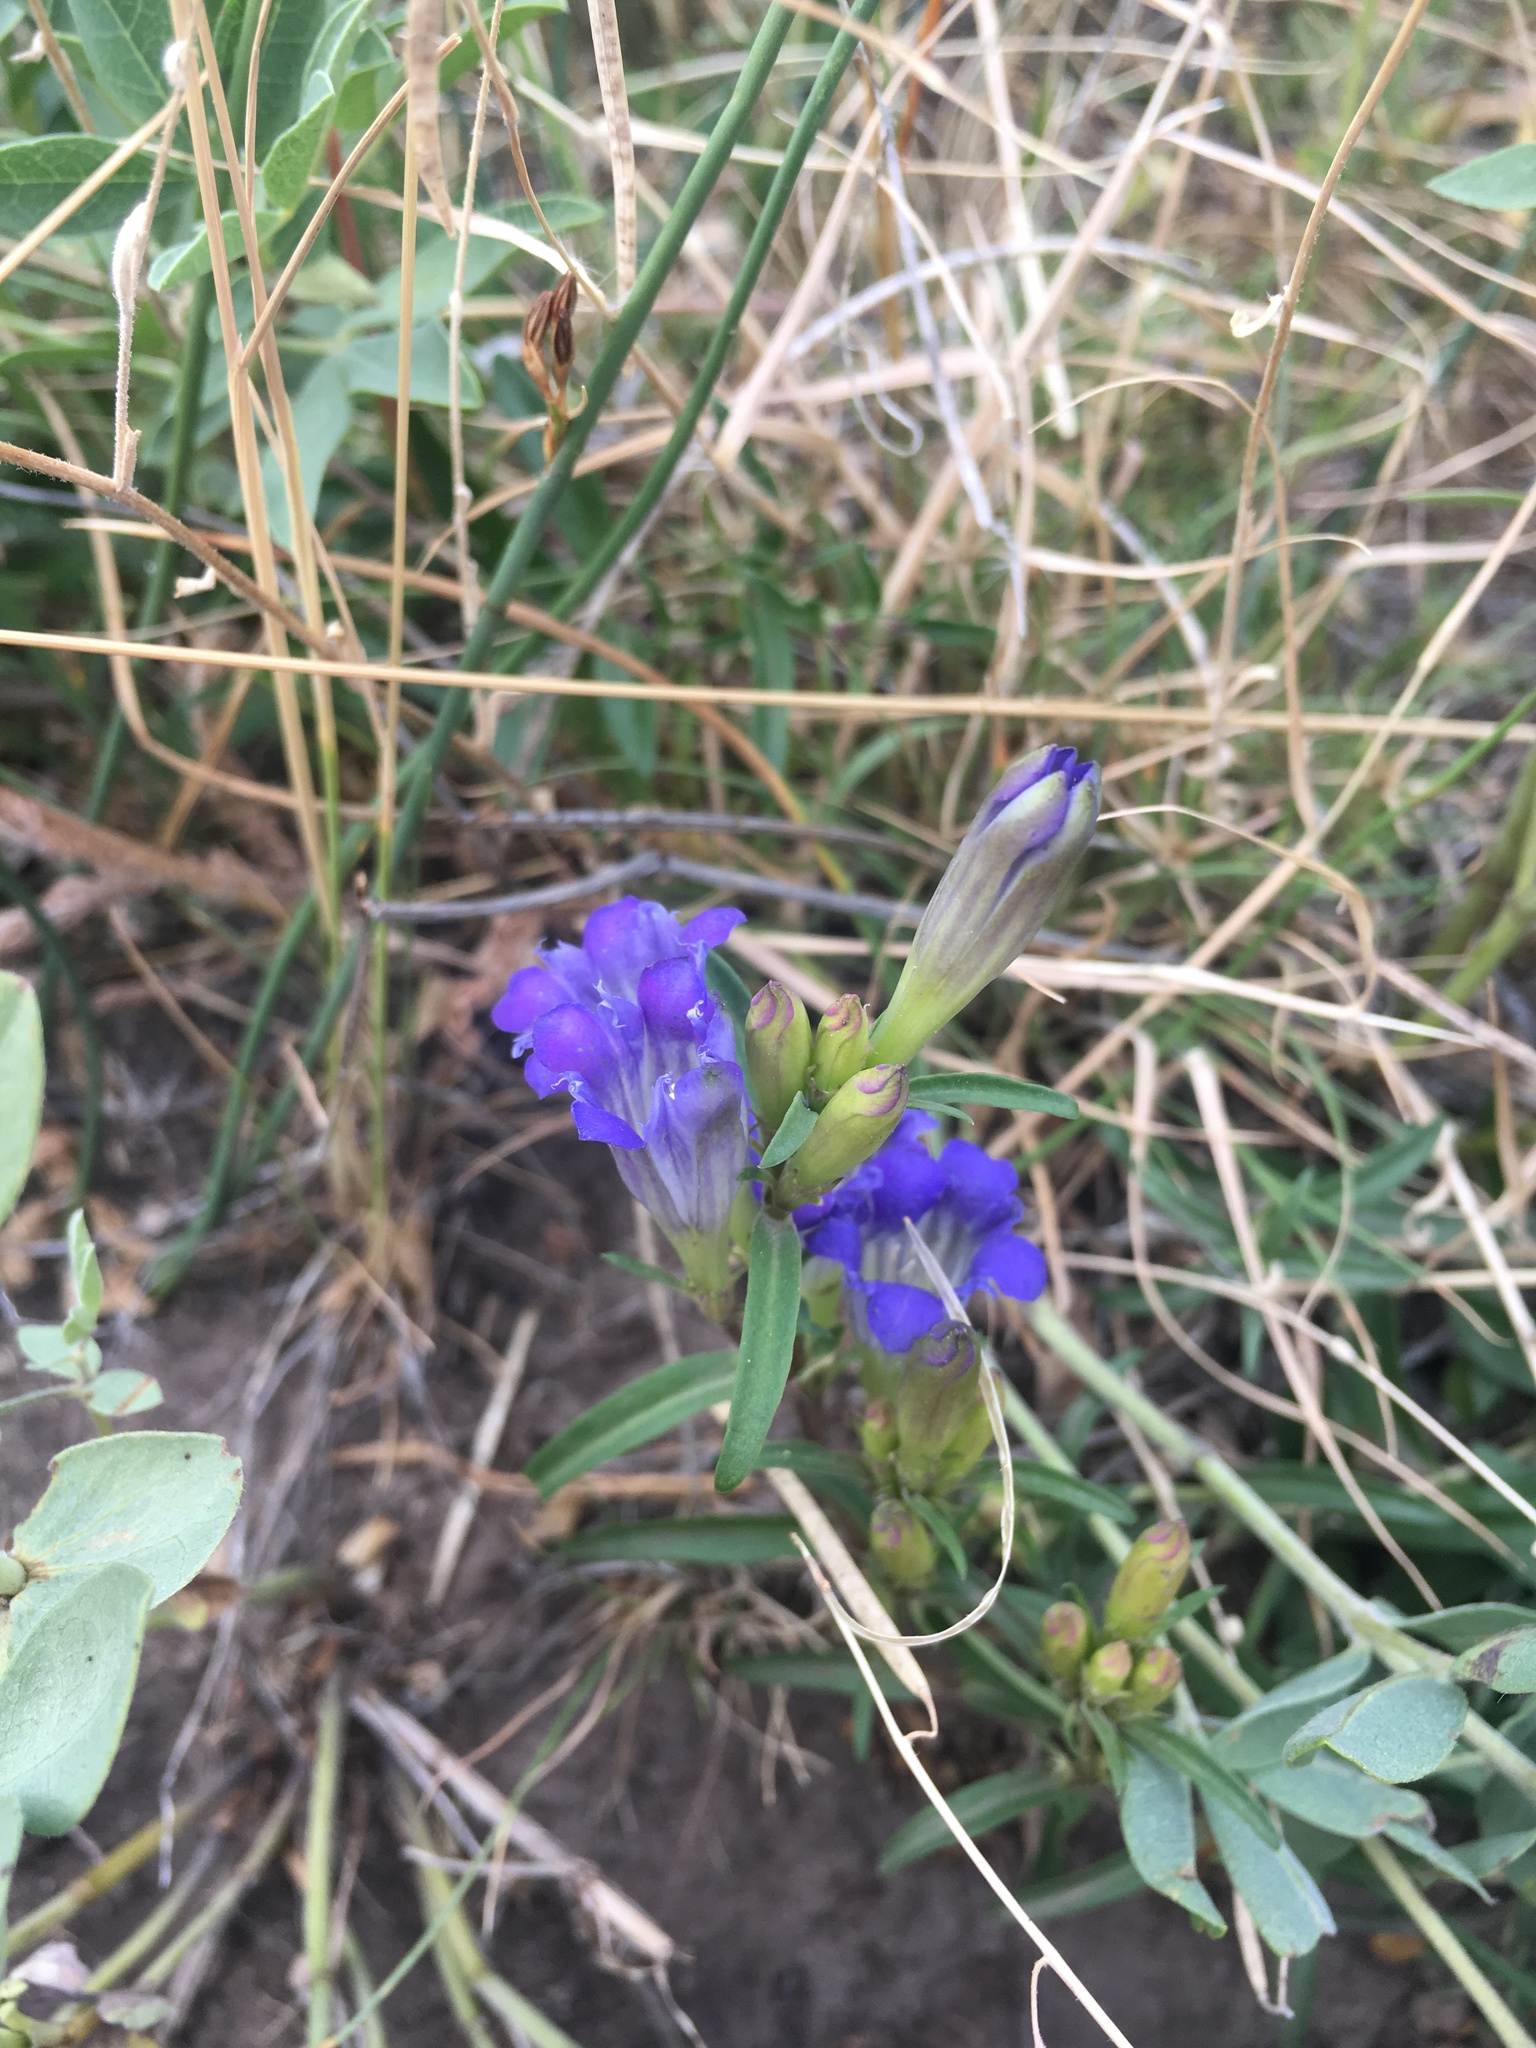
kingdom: Plantae
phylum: Tracheophyta
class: Magnoliopsida
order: Gentianales
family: Gentianaceae
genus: Gentiana
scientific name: Gentiana affinis
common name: Rocky mountain gentian
